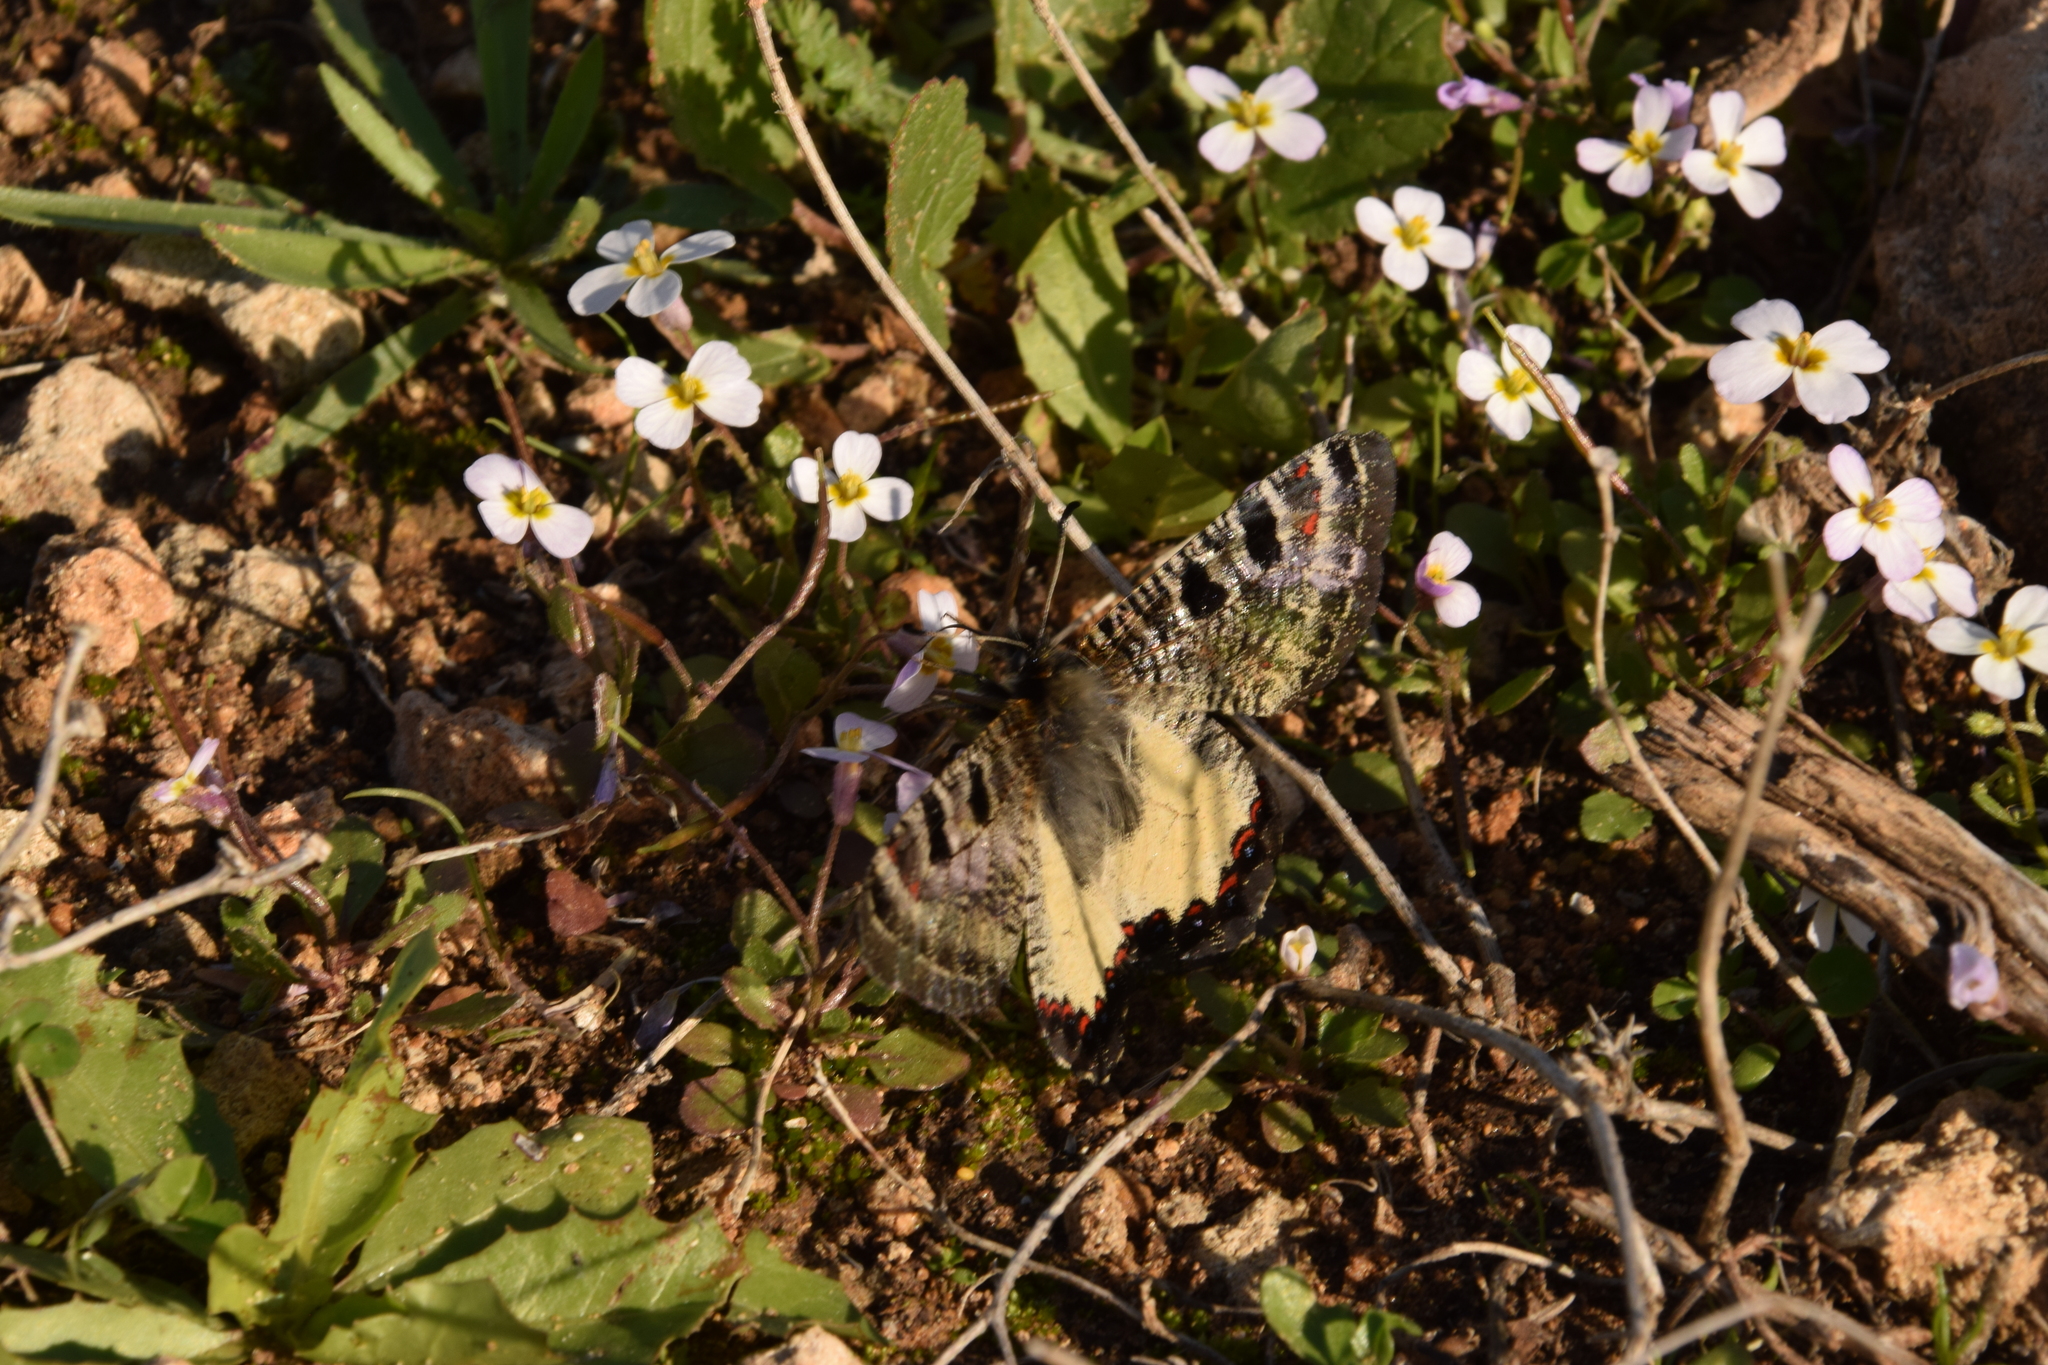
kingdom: Animalia
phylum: Arthropoda
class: Insecta
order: Lepidoptera
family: Papilionidae
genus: Archon
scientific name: Archon apollinus
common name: False apollo
